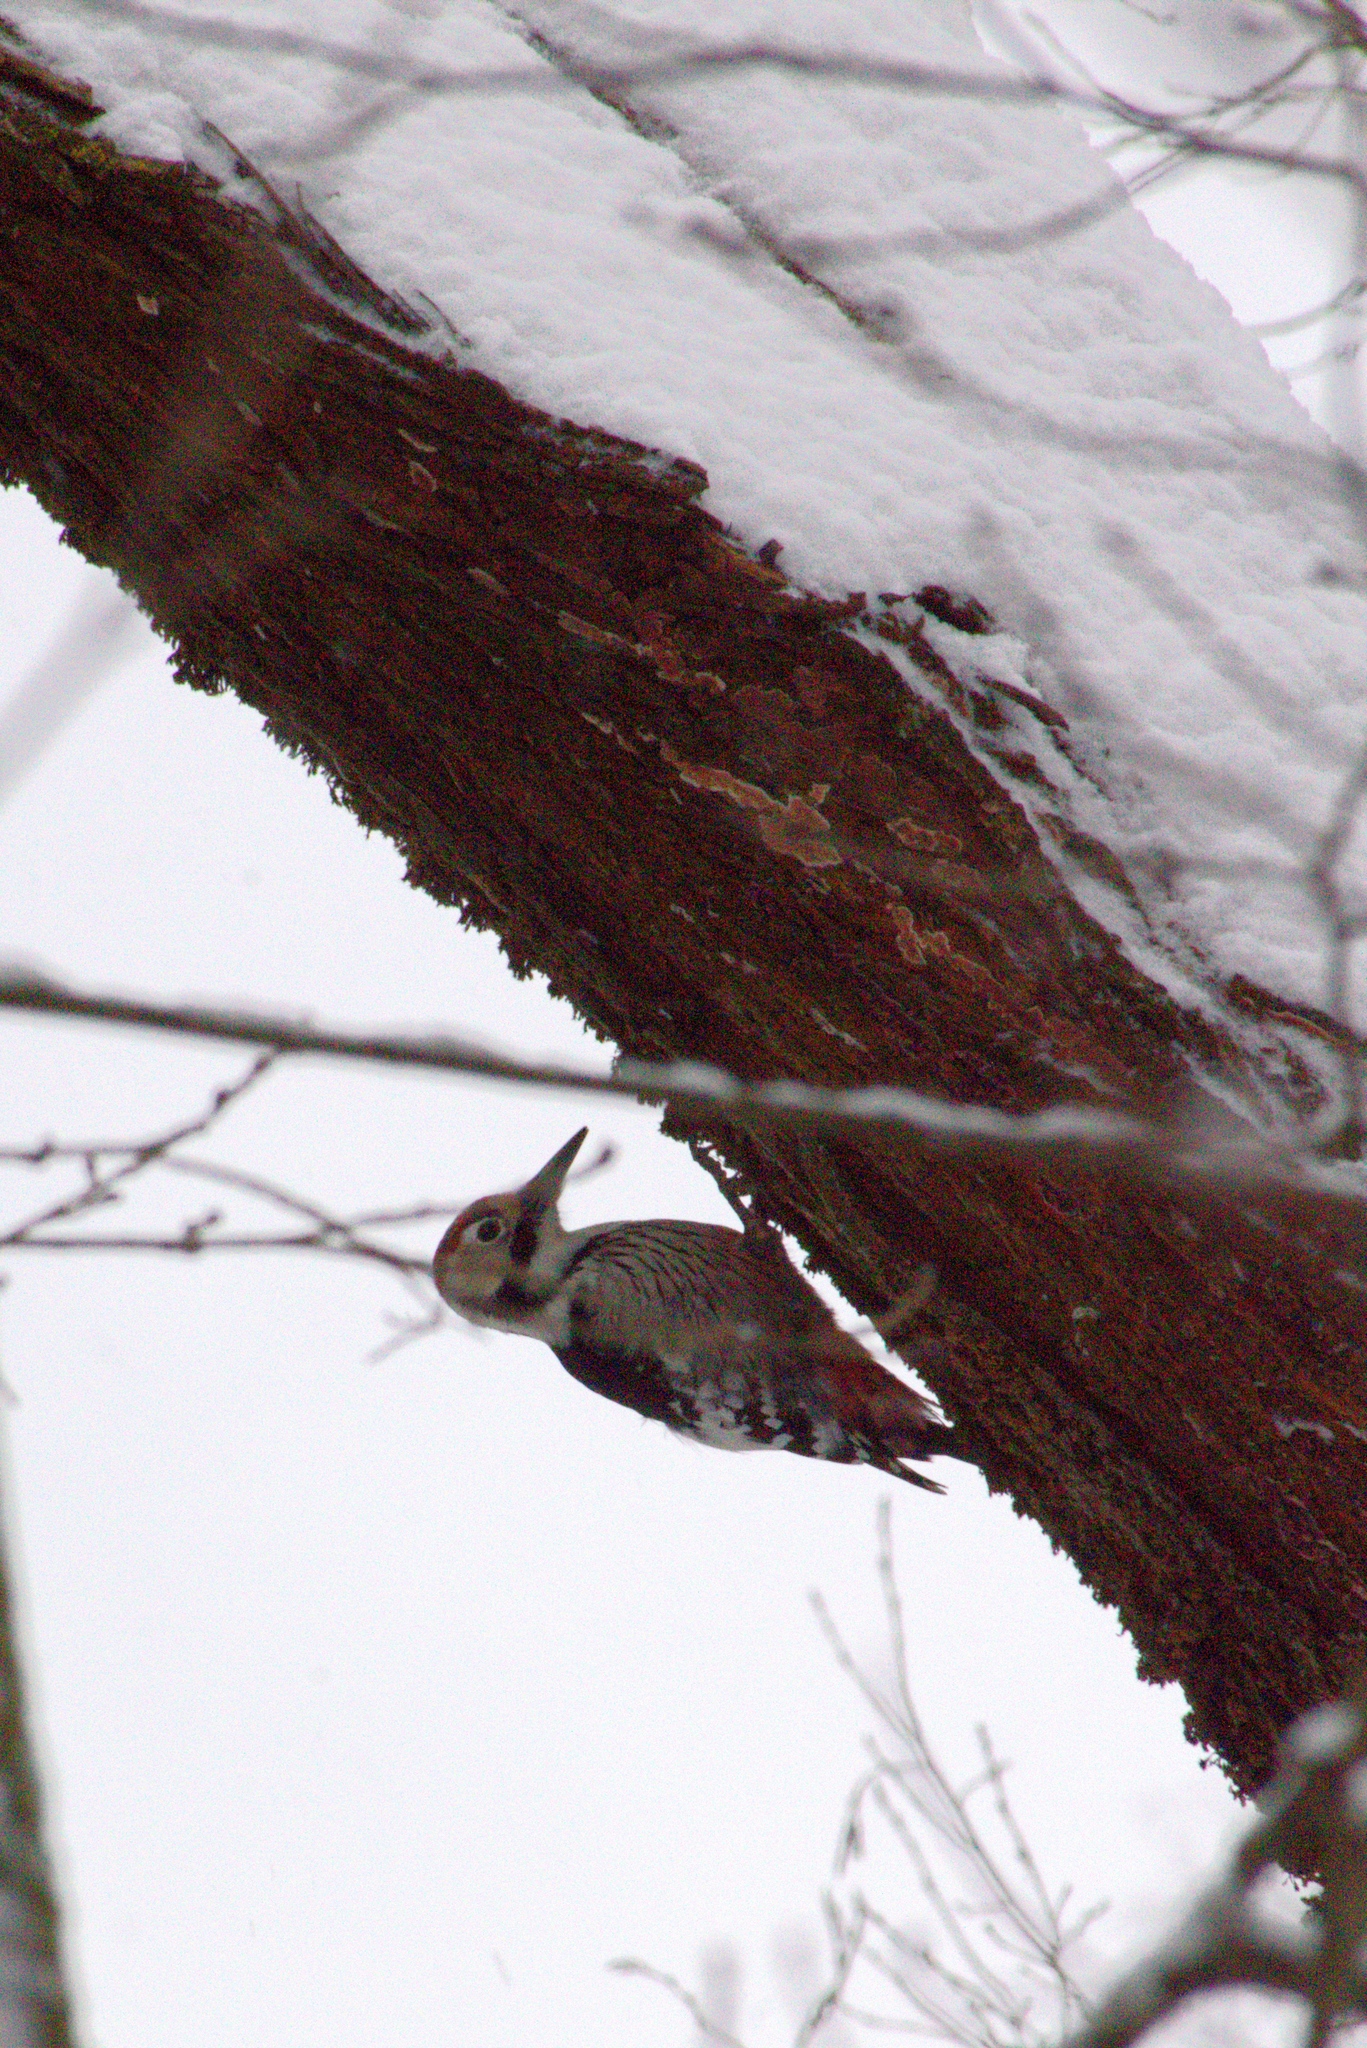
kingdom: Animalia
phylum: Chordata
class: Aves
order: Piciformes
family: Picidae
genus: Dendrocopos
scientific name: Dendrocopos leucotos
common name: White-backed woodpecker
